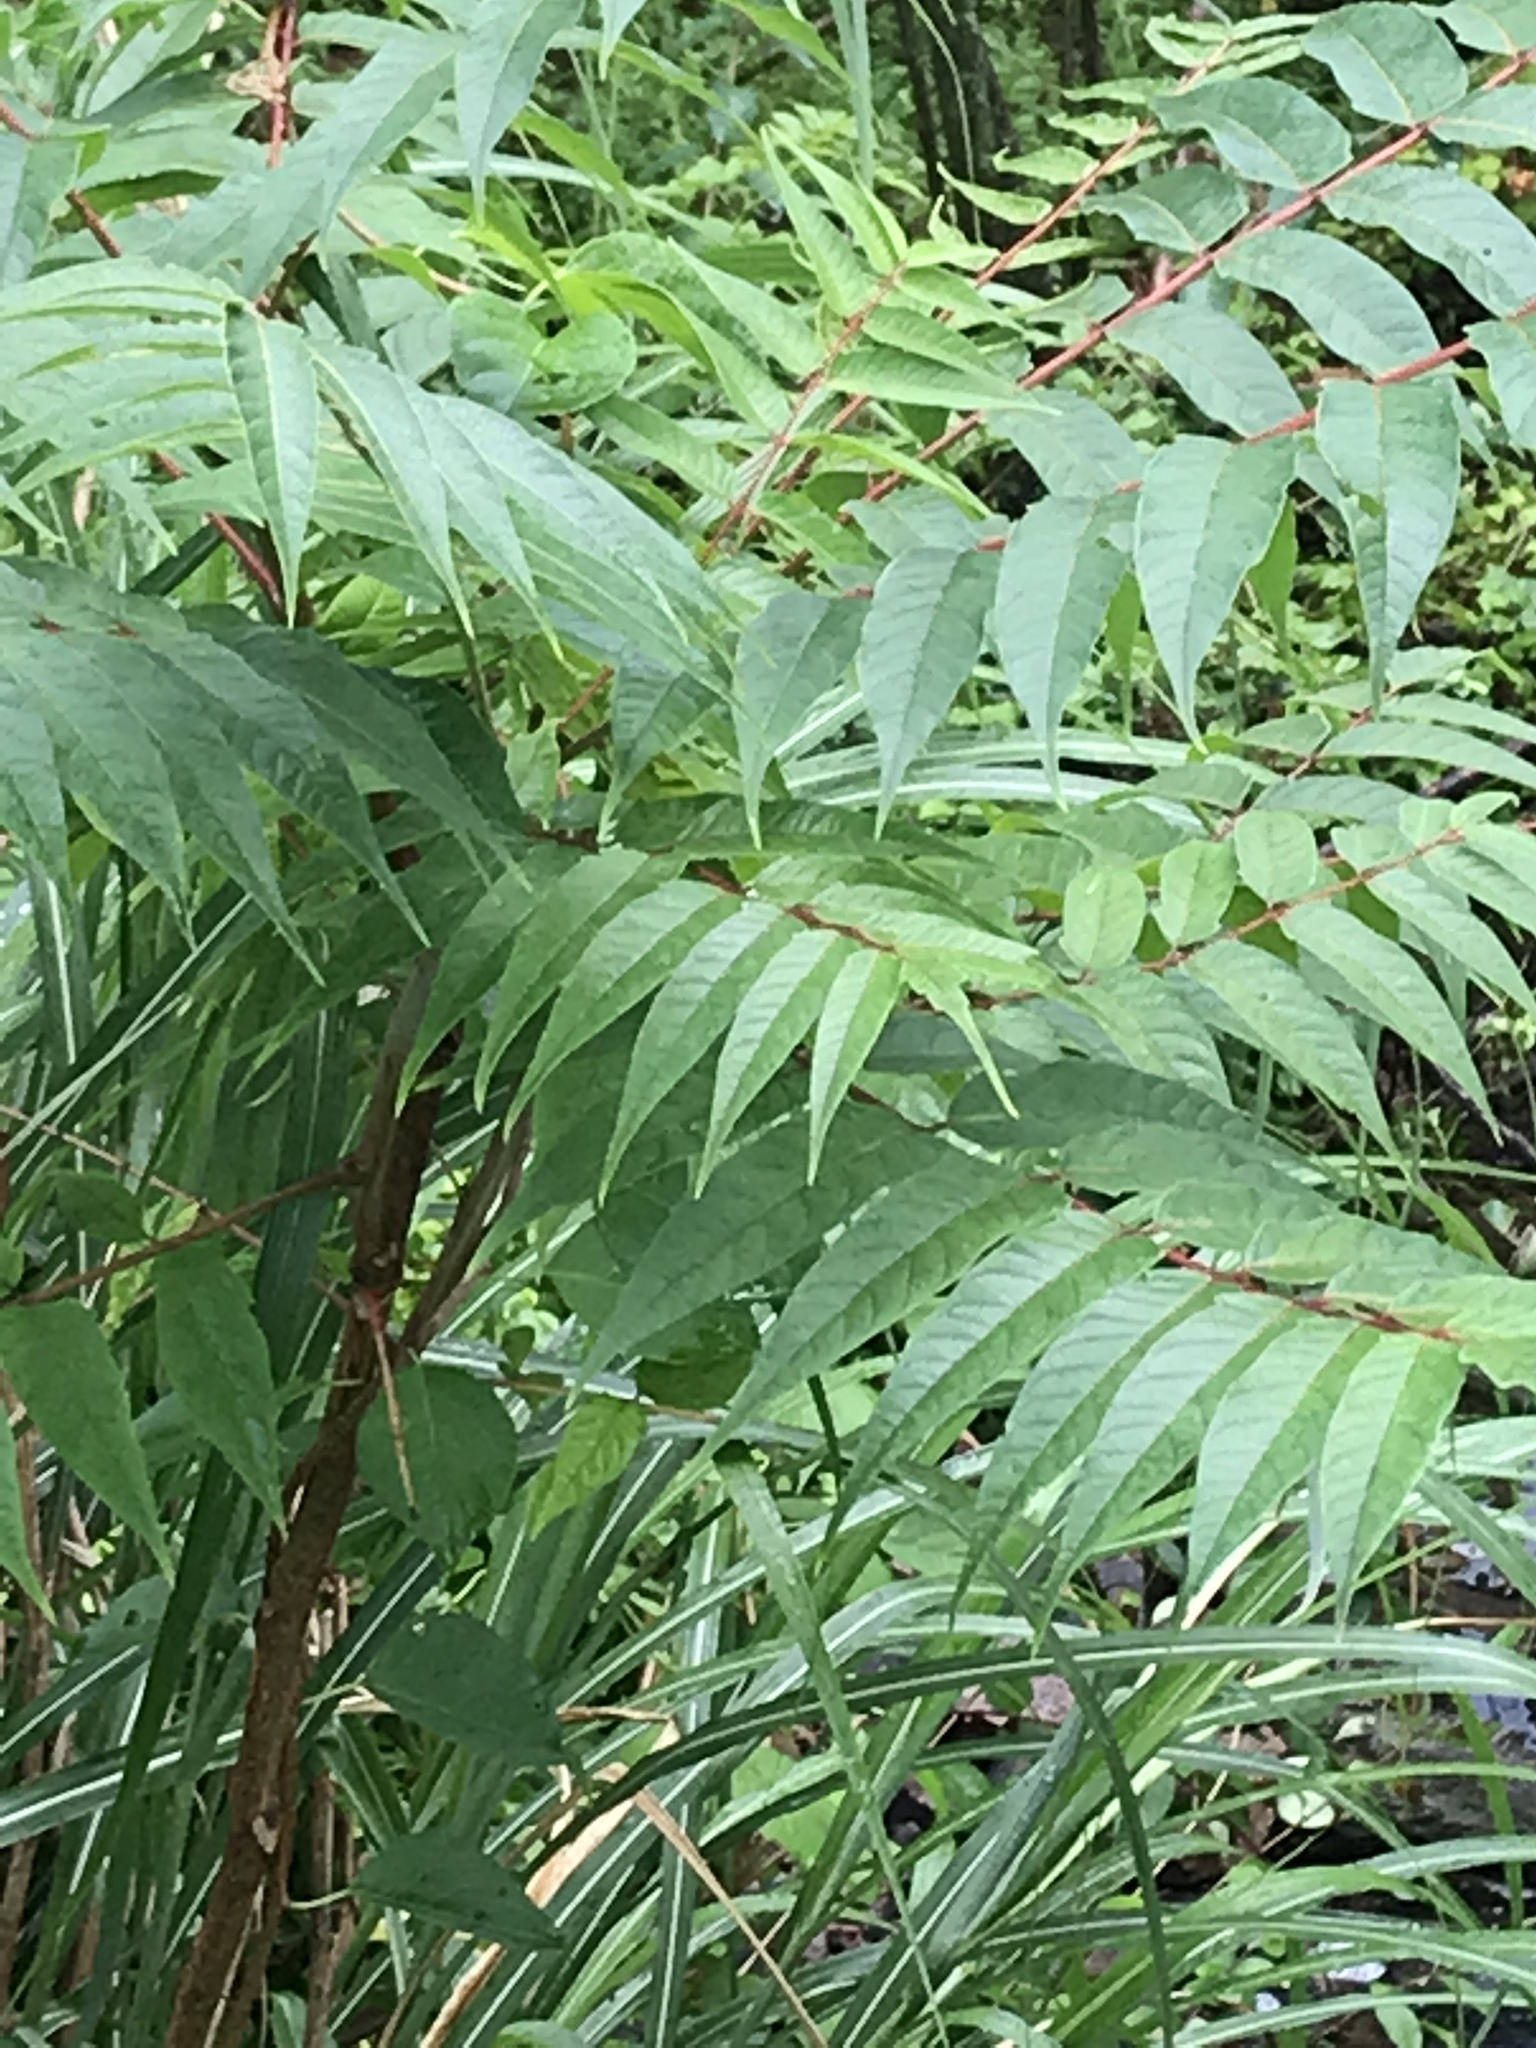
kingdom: Plantae
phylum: Tracheophyta
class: Magnoliopsida
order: Sapindales
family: Simaroubaceae
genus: Ailanthus
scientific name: Ailanthus altissima
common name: Tree-of-heaven
